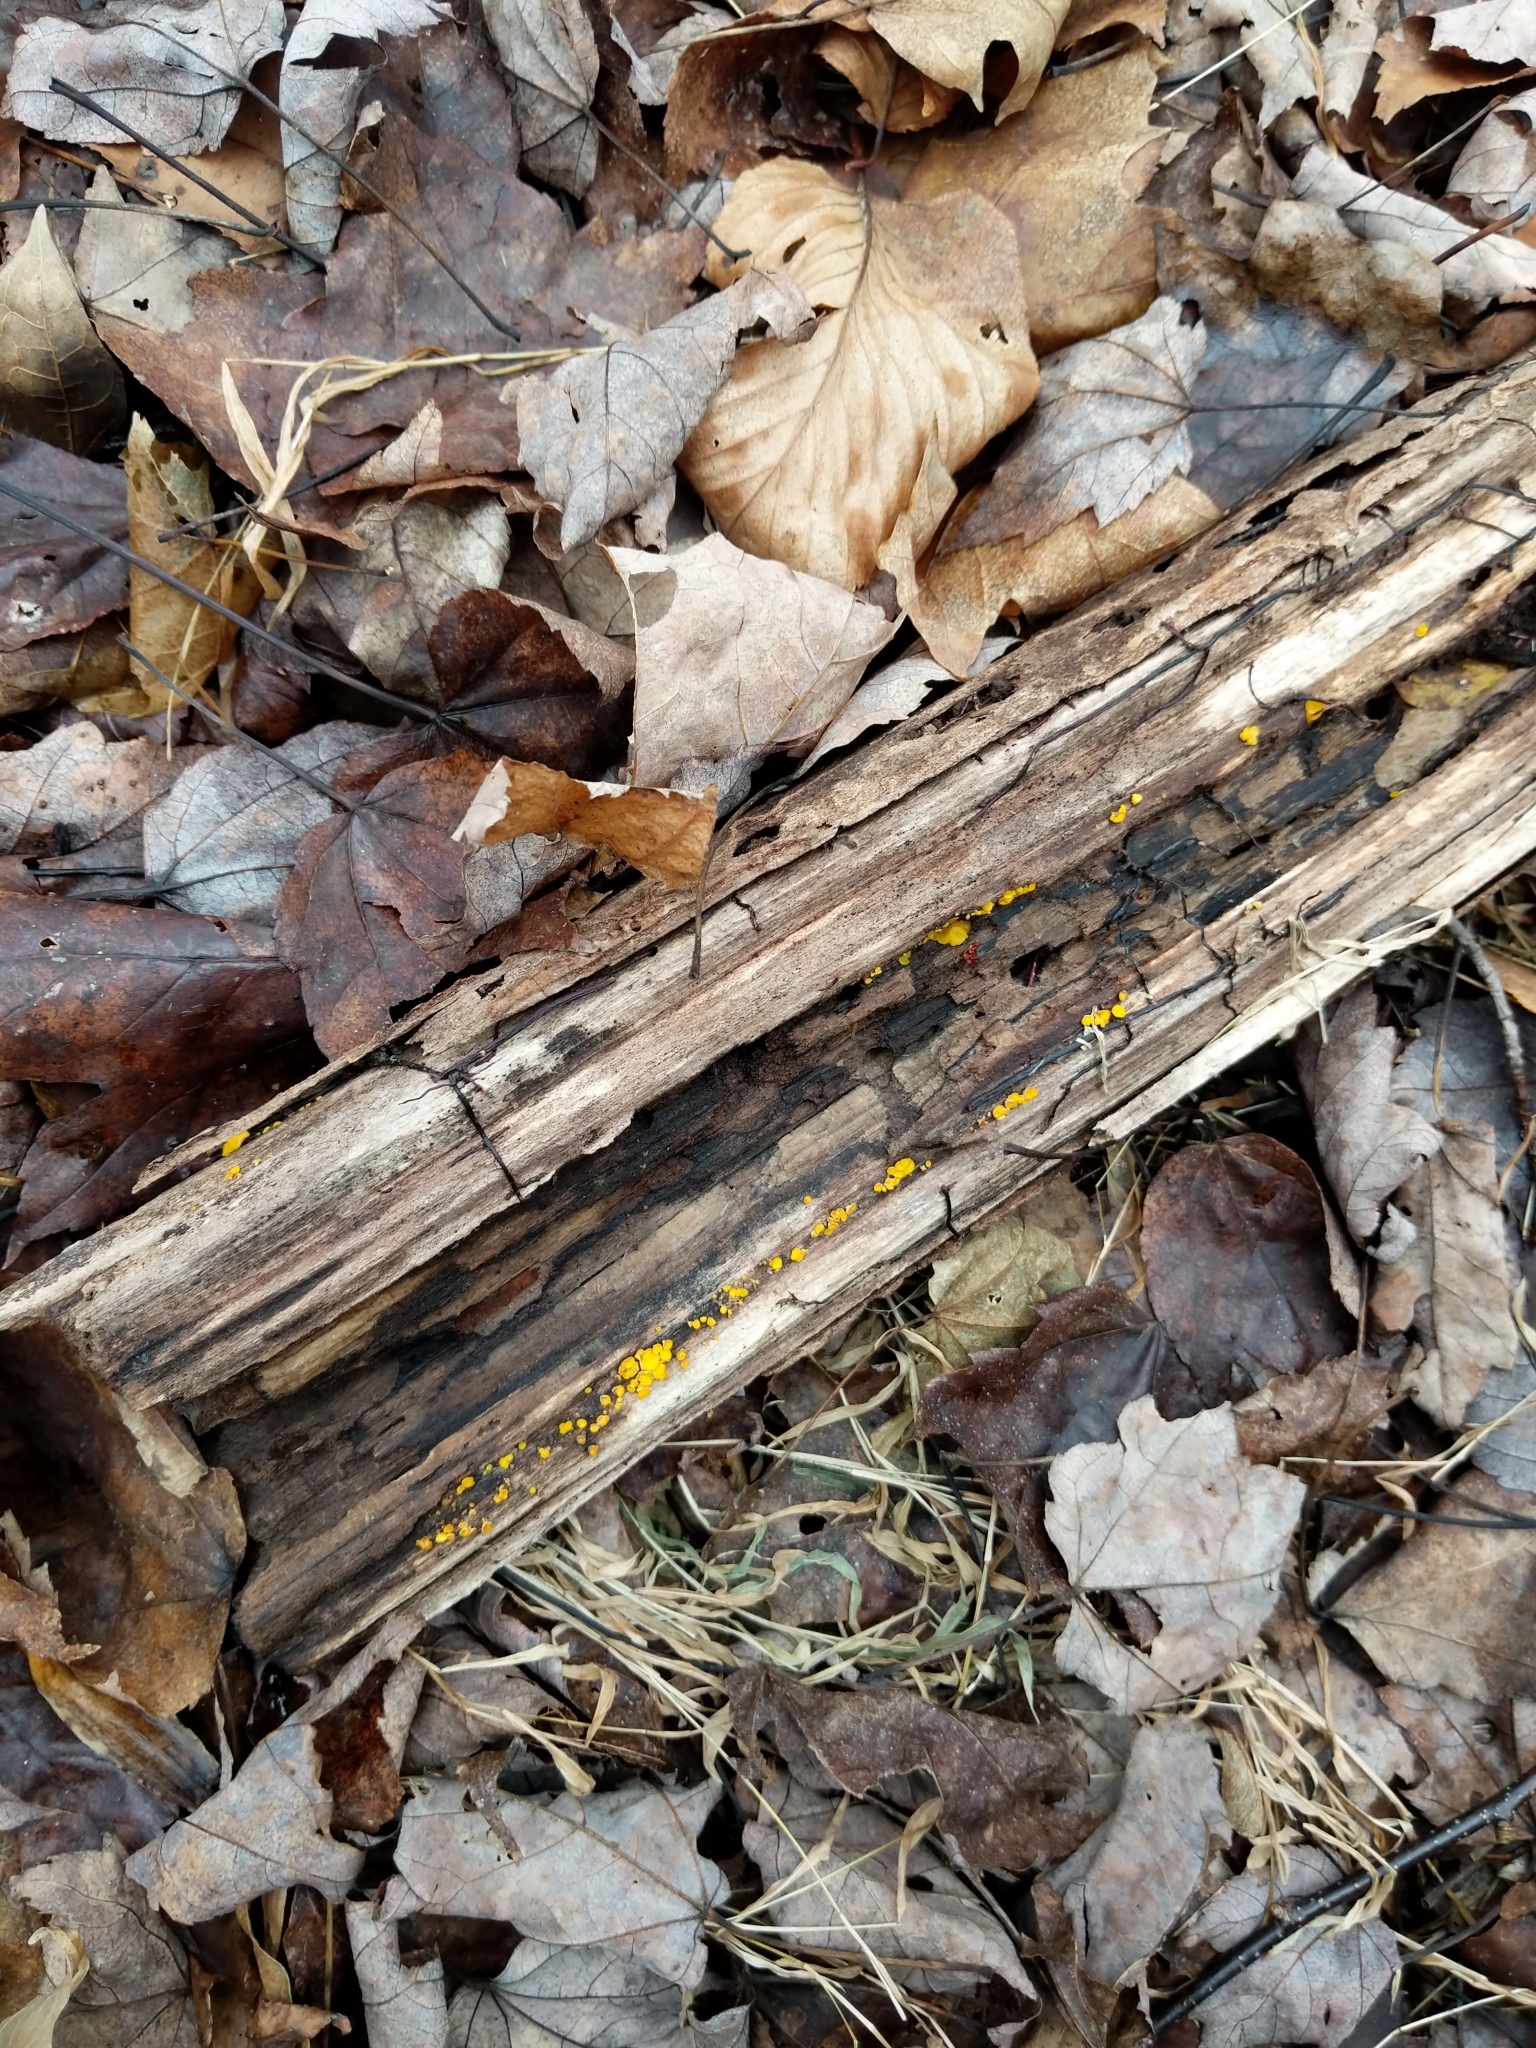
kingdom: Fungi
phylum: Ascomycota
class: Leotiomycetes
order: Helotiales
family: Pezizellaceae
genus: Calycina
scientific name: Calycina citrina
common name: Yellow fairy cups
